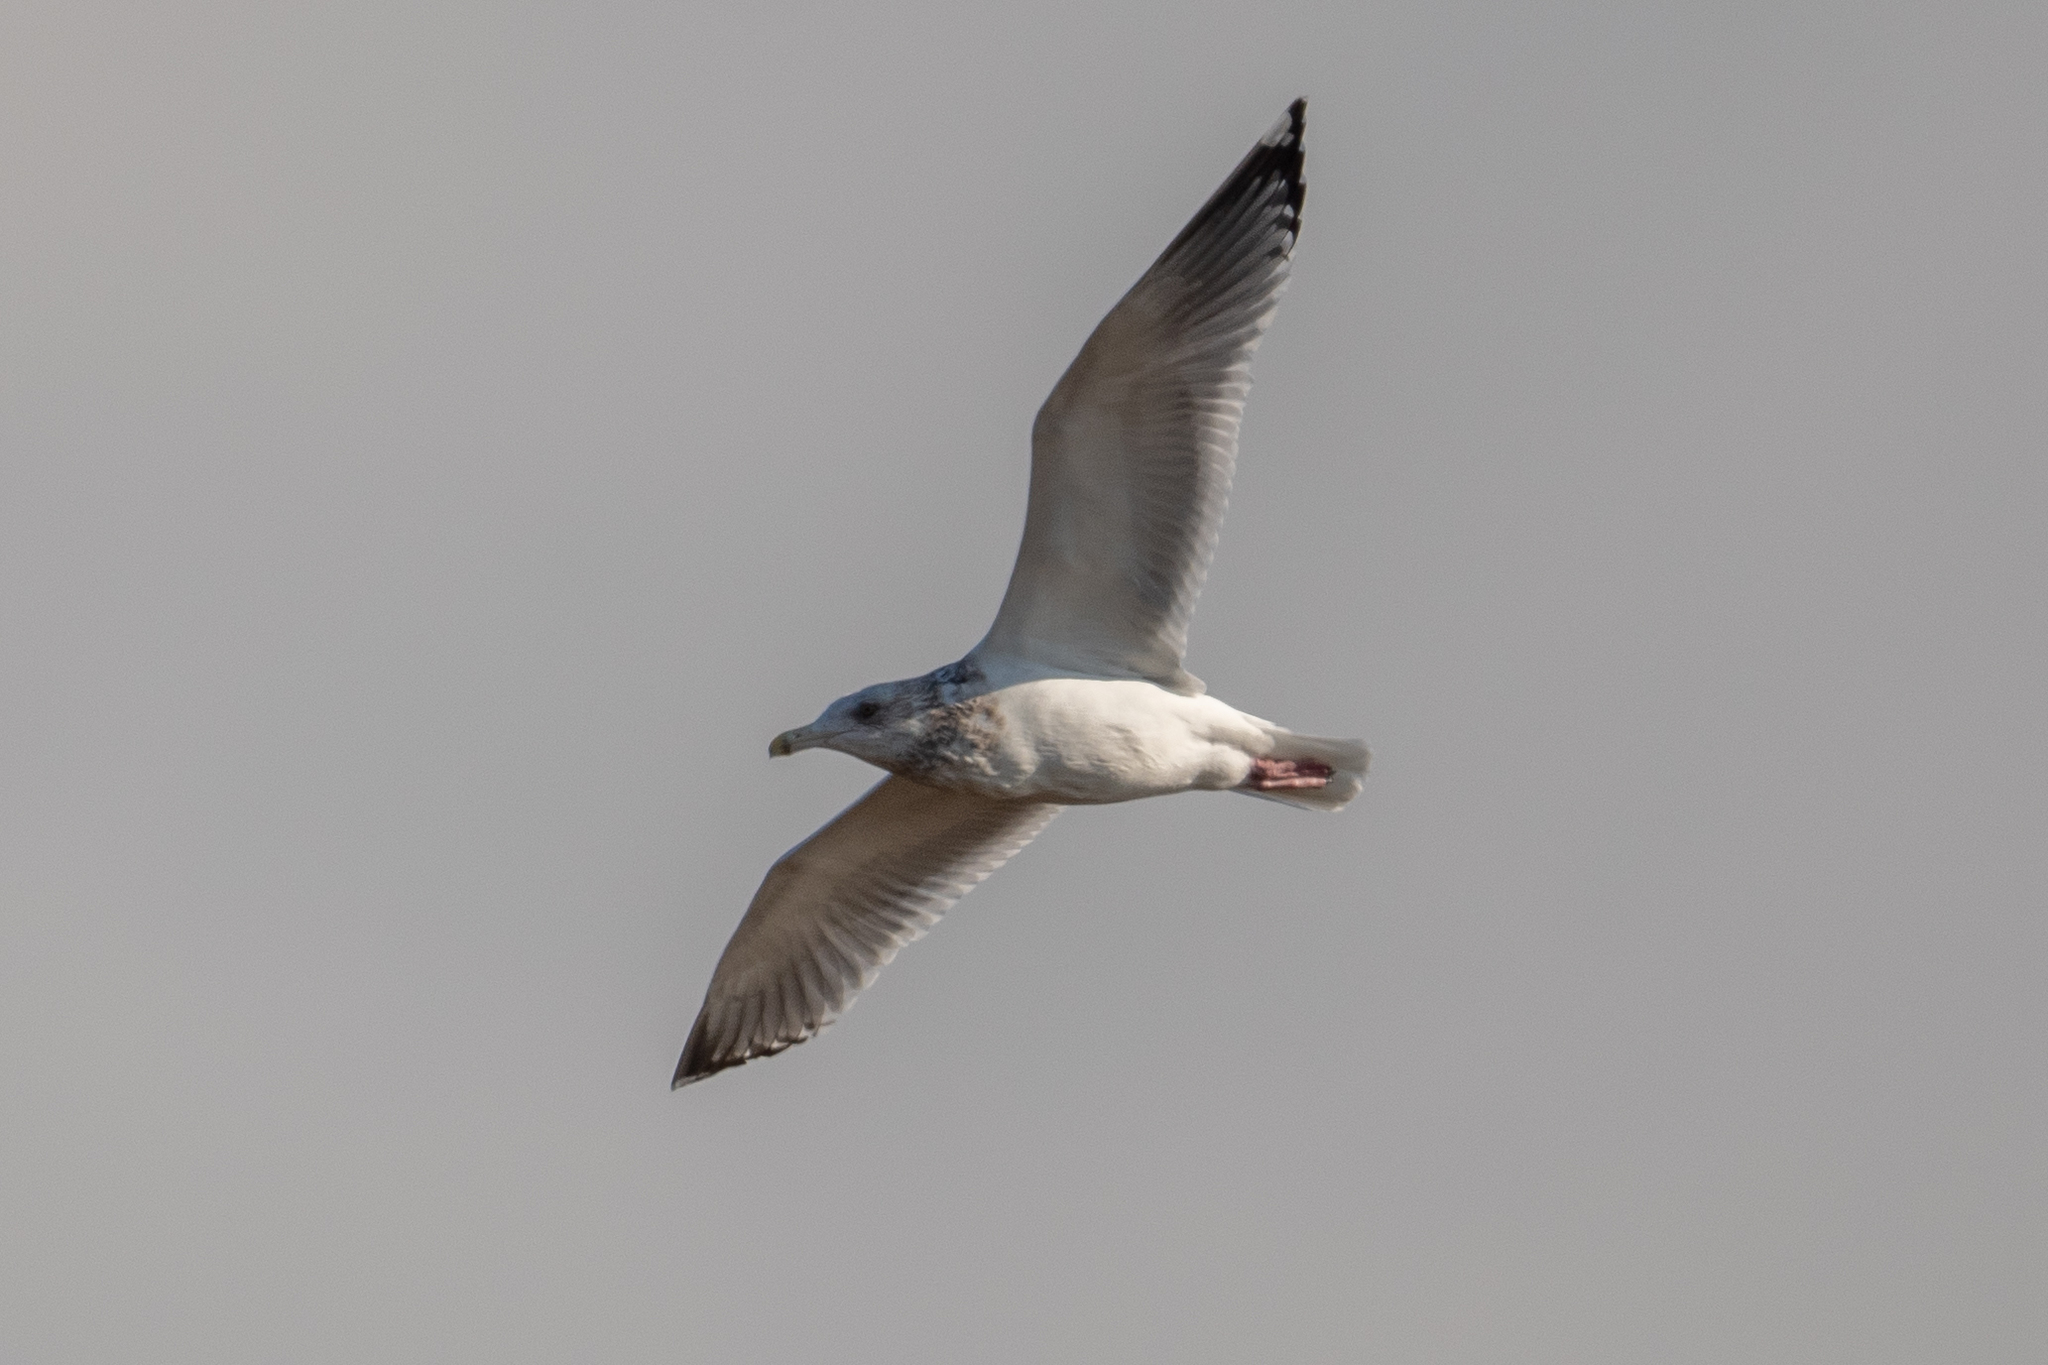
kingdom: Animalia
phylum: Chordata
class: Aves
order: Charadriiformes
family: Laridae
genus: Larus
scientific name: Larus argentatus
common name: Herring gull
